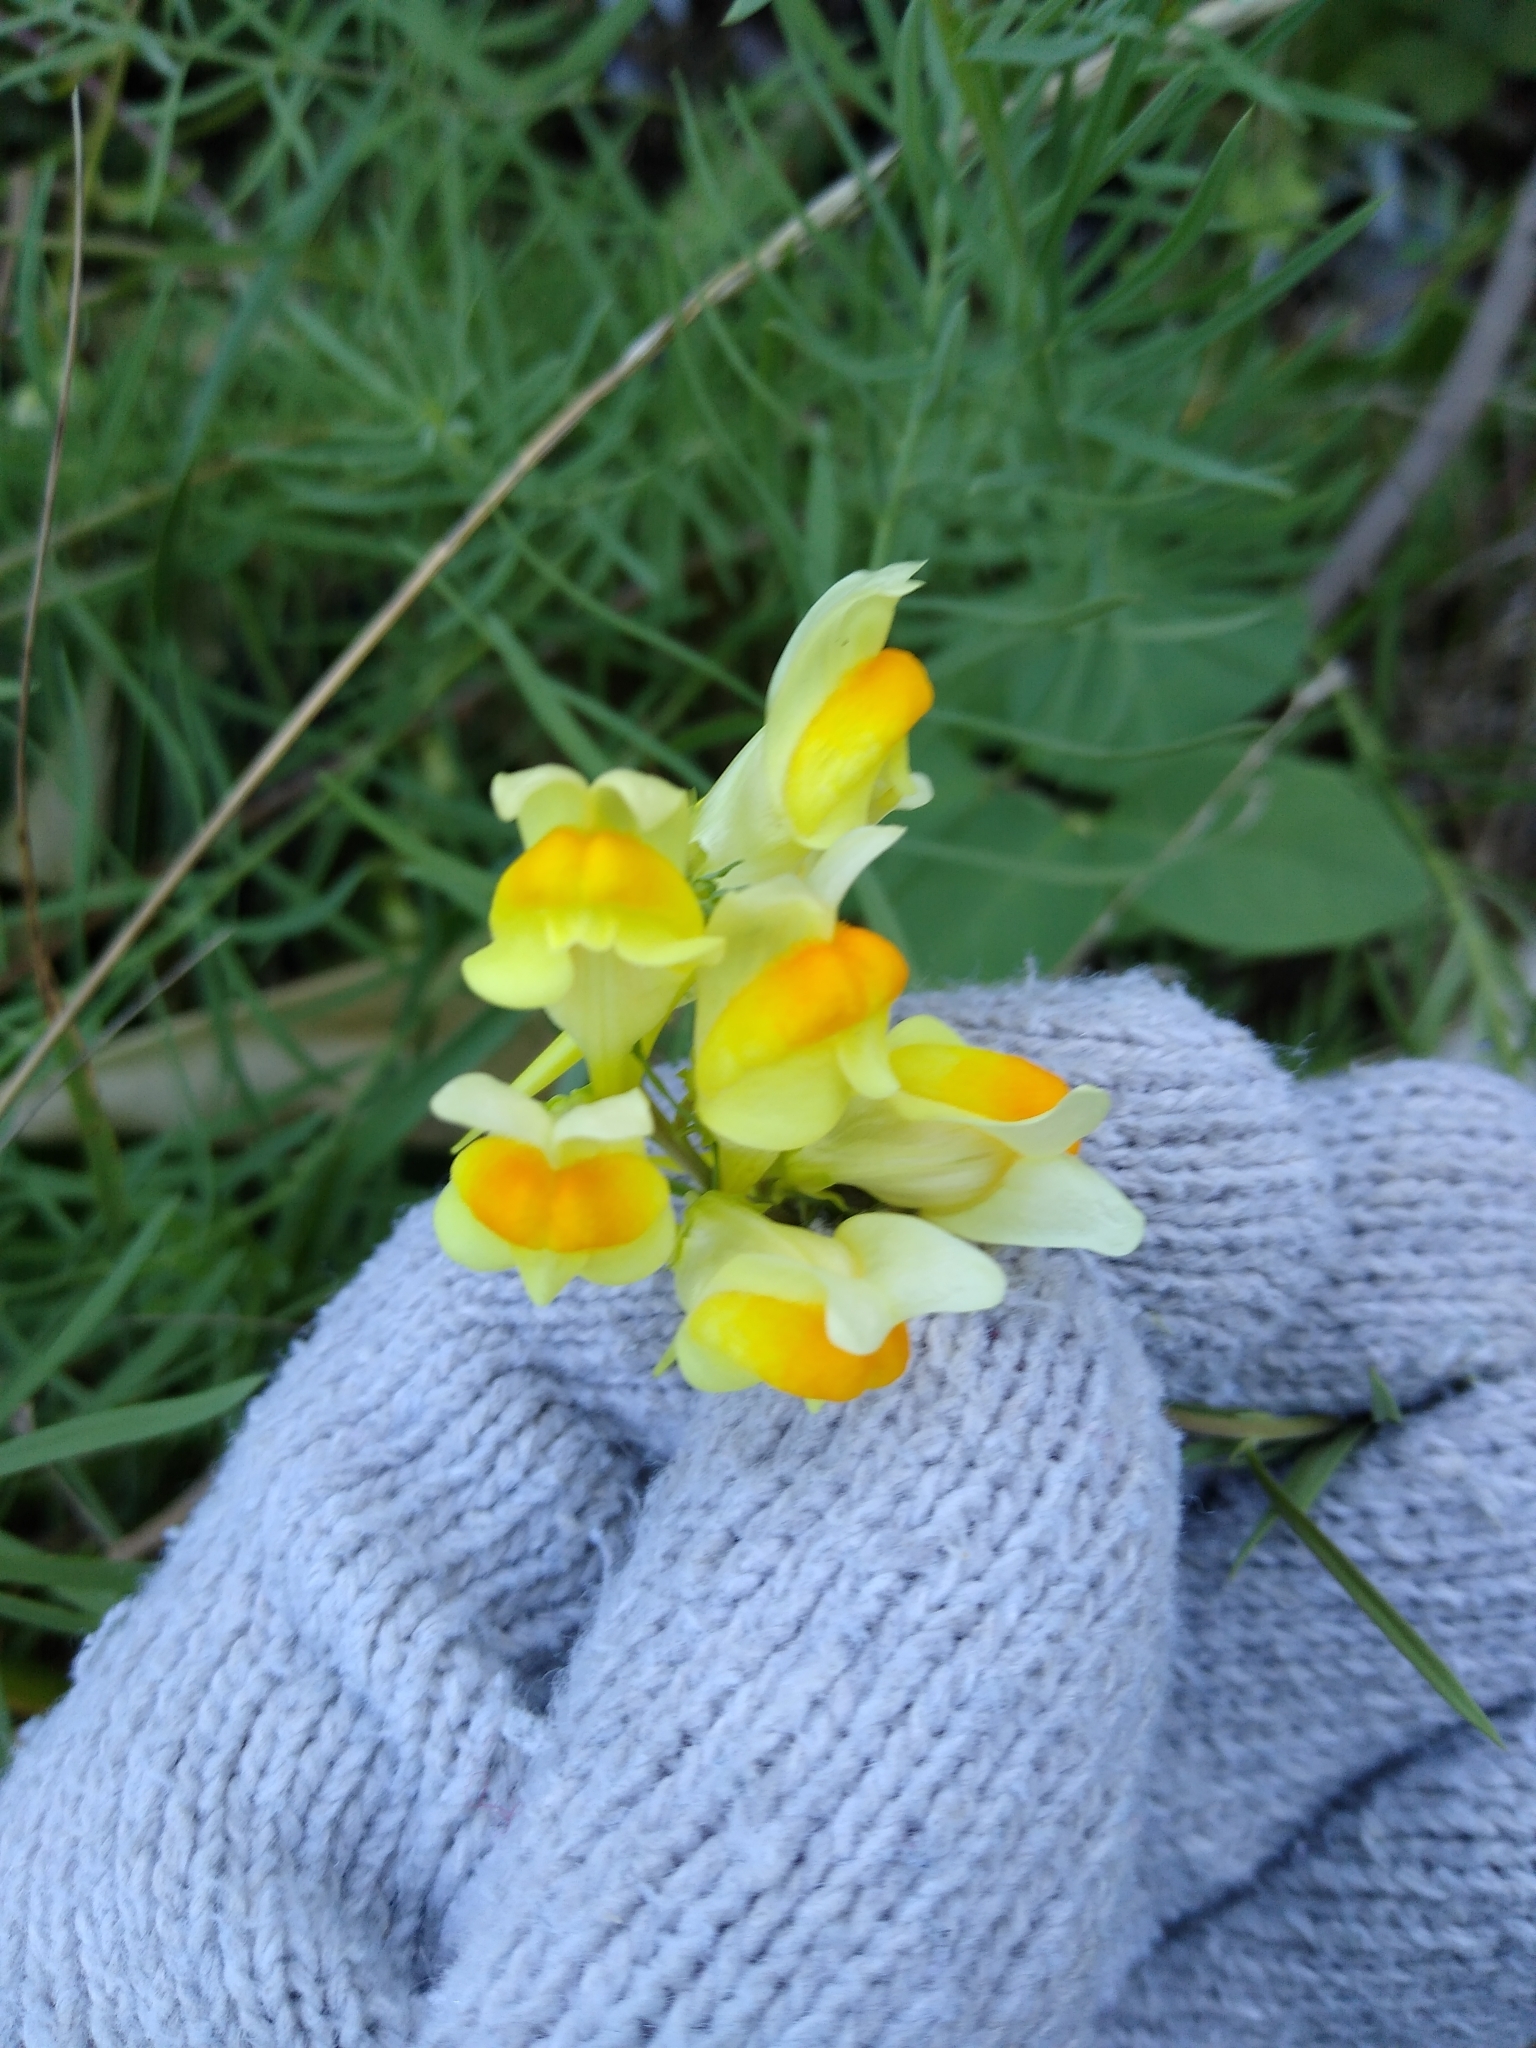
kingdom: Plantae
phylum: Tracheophyta
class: Magnoliopsida
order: Lamiales
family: Plantaginaceae
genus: Linaria
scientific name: Linaria vulgaris
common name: Butter and eggs
